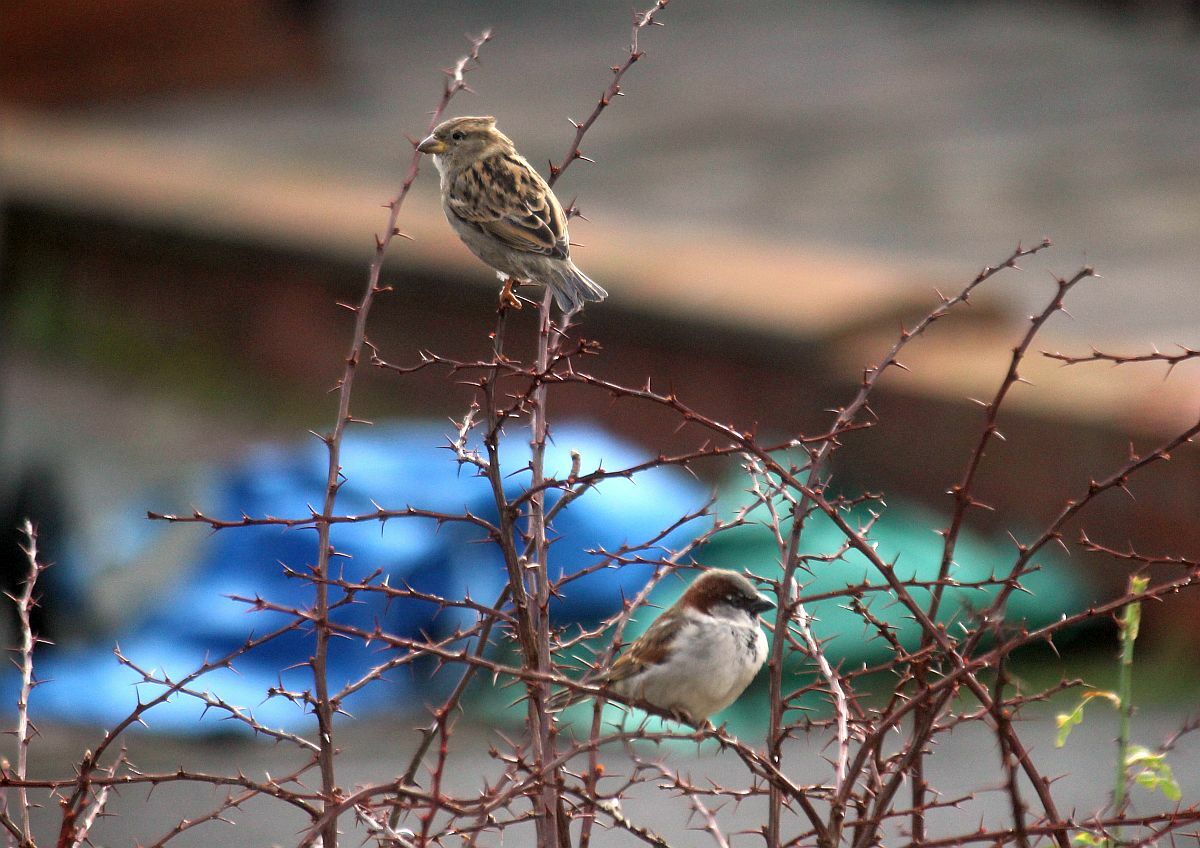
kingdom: Animalia
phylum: Chordata
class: Aves
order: Passeriformes
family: Passeridae
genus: Passer
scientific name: Passer domesticus
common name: House sparrow
